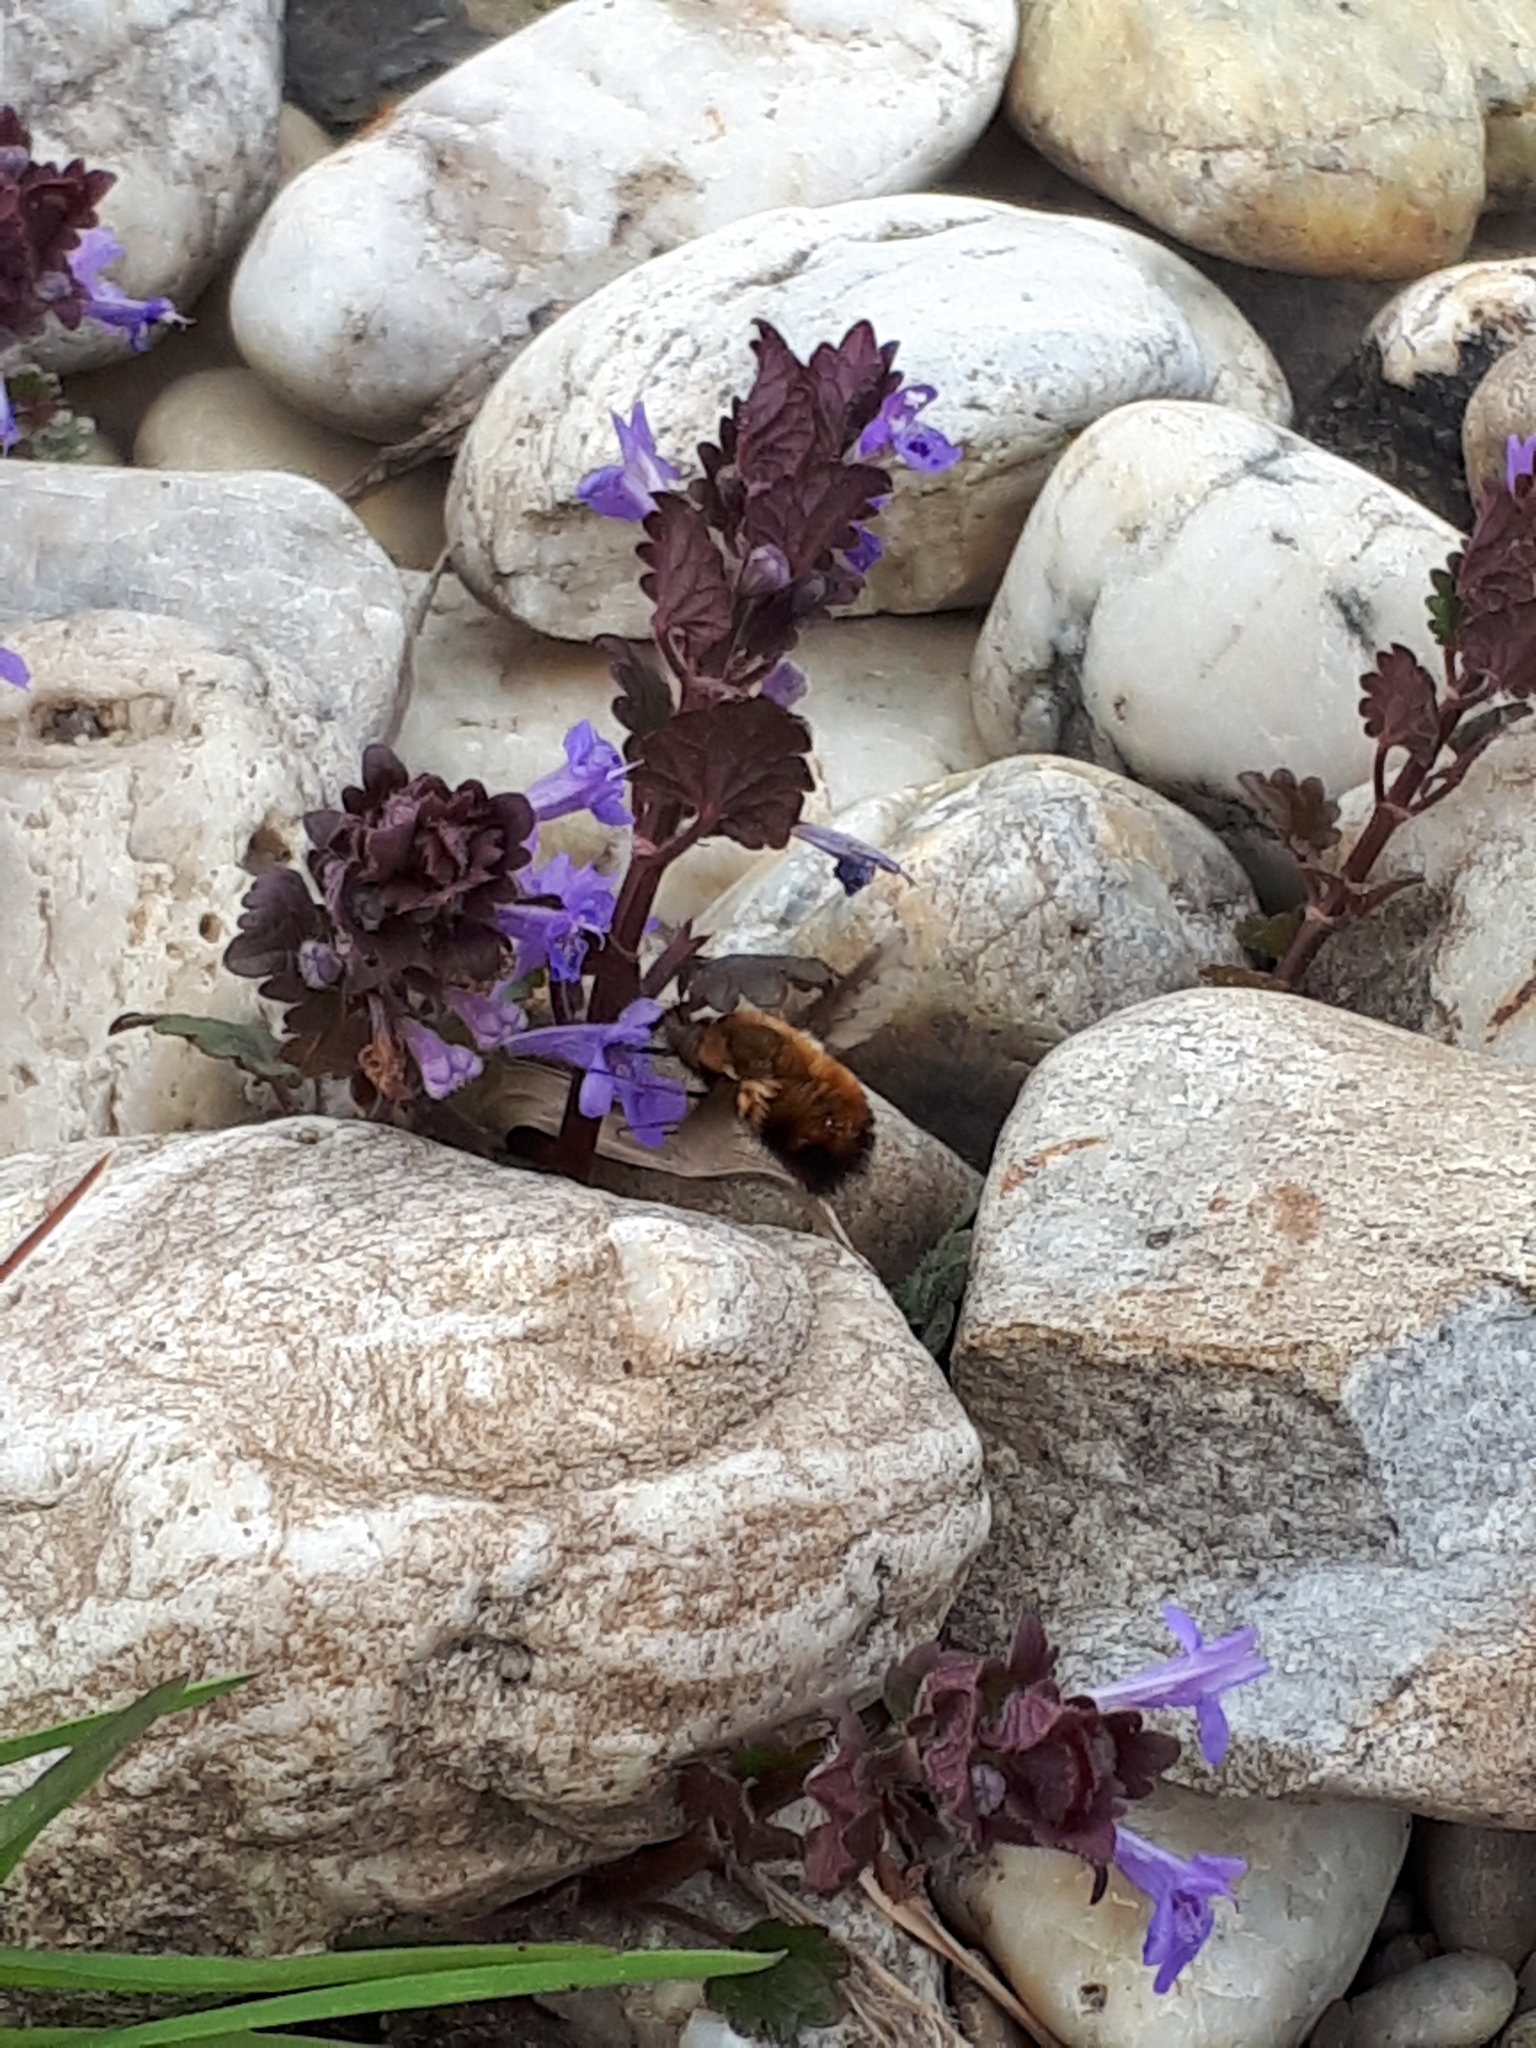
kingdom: Animalia
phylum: Arthropoda
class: Insecta
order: Diptera
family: Bombyliidae
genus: Bombylius
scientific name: Bombylius discolor
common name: Dotted bee-fly
